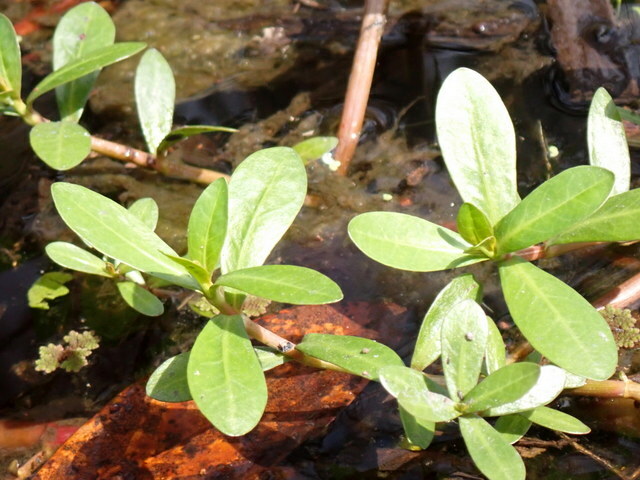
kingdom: Plantae
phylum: Tracheophyta
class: Magnoliopsida
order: Caryophyllales
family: Amaranthaceae
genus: Alternanthera
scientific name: Alternanthera philoxeroides
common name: Alligatorweed
